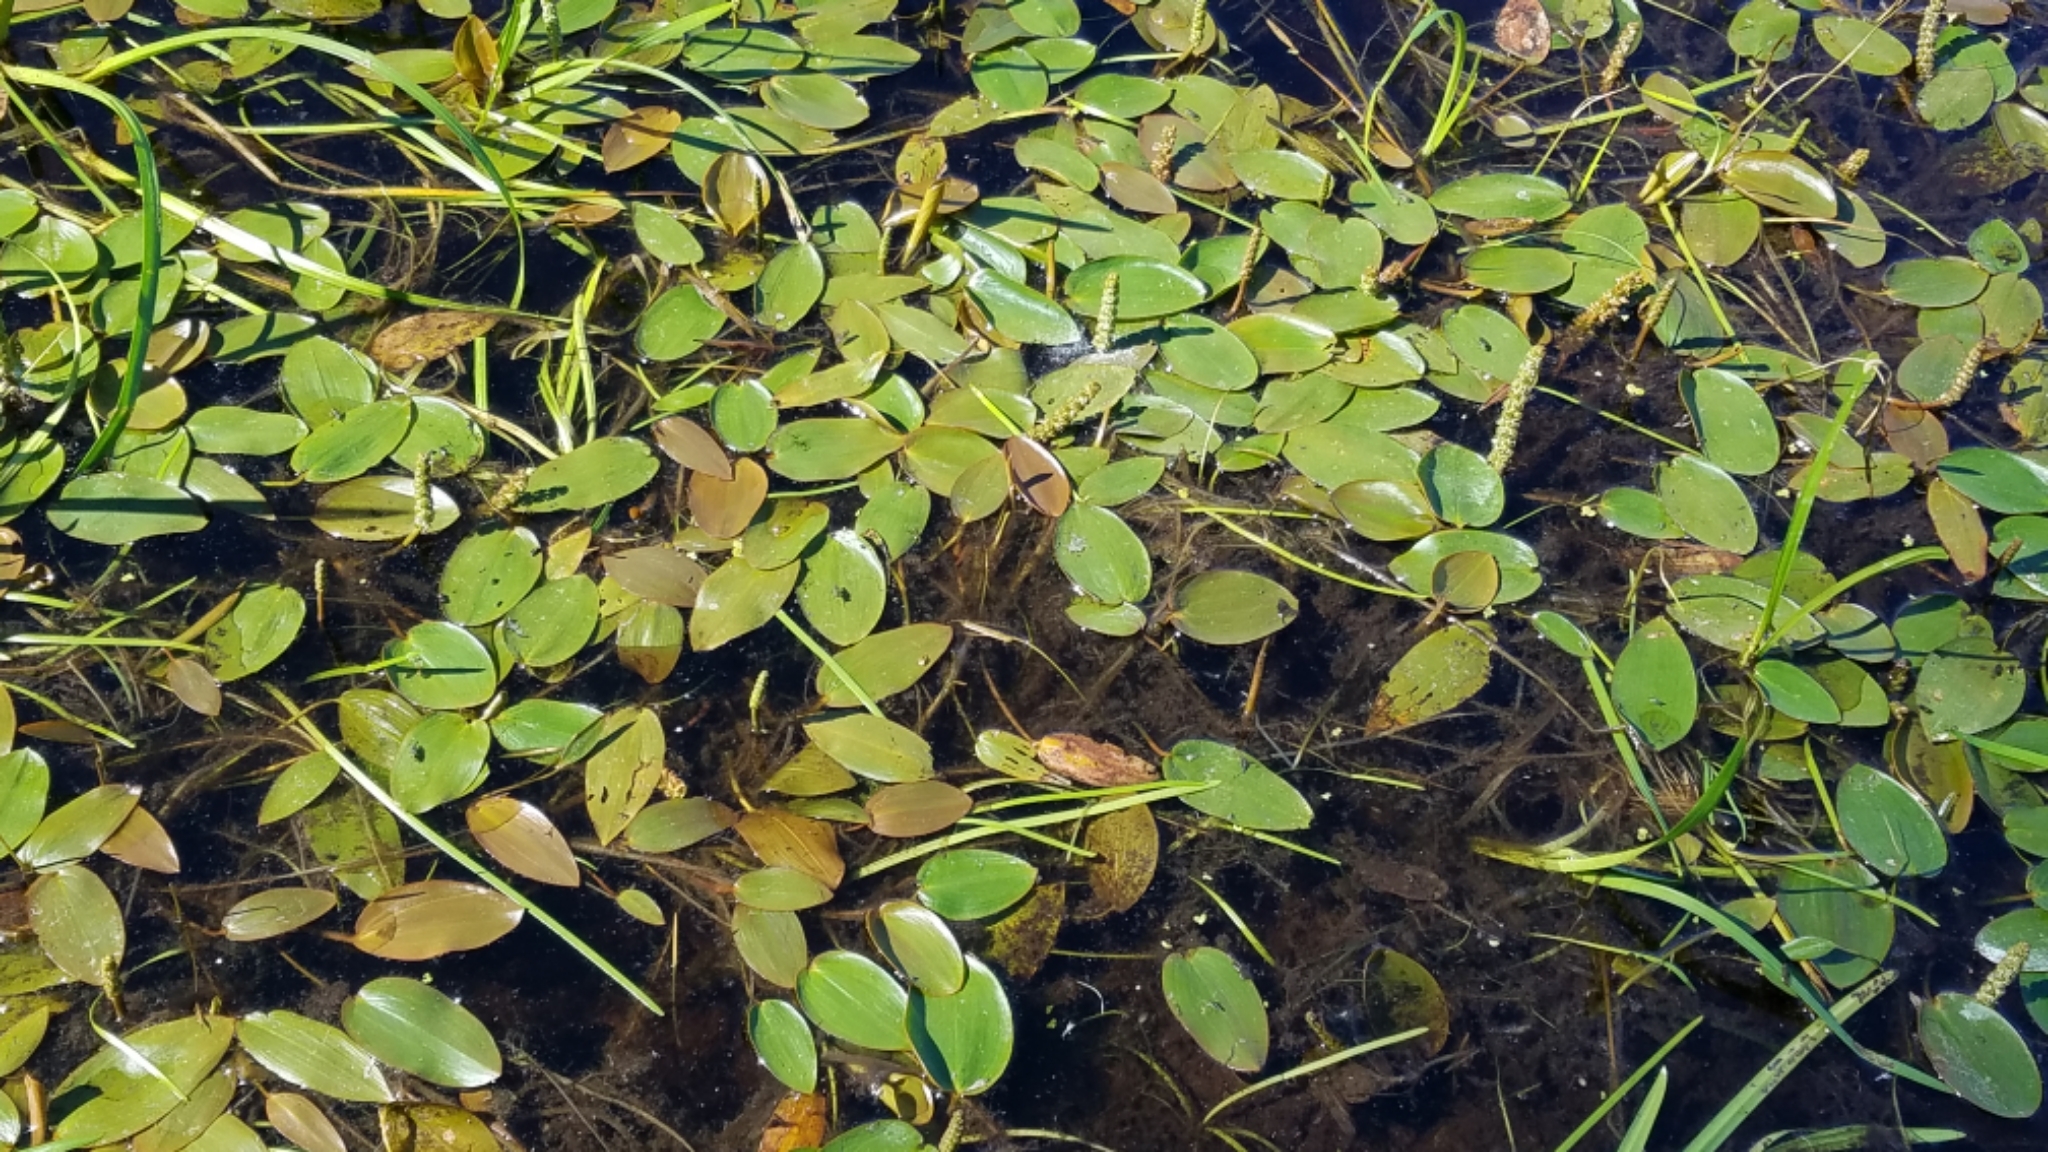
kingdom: Plantae
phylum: Tracheophyta
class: Liliopsida
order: Alismatales
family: Potamogetonaceae
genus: Potamogeton
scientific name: Potamogeton natans
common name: Broad-leaved pondweed
